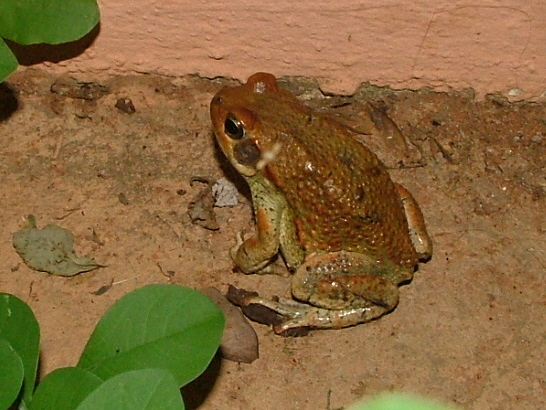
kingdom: Animalia
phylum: Chordata
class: Amphibia
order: Anura
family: Bufonidae
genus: Schismaderma
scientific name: Schismaderma carens
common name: African split-skin toad
